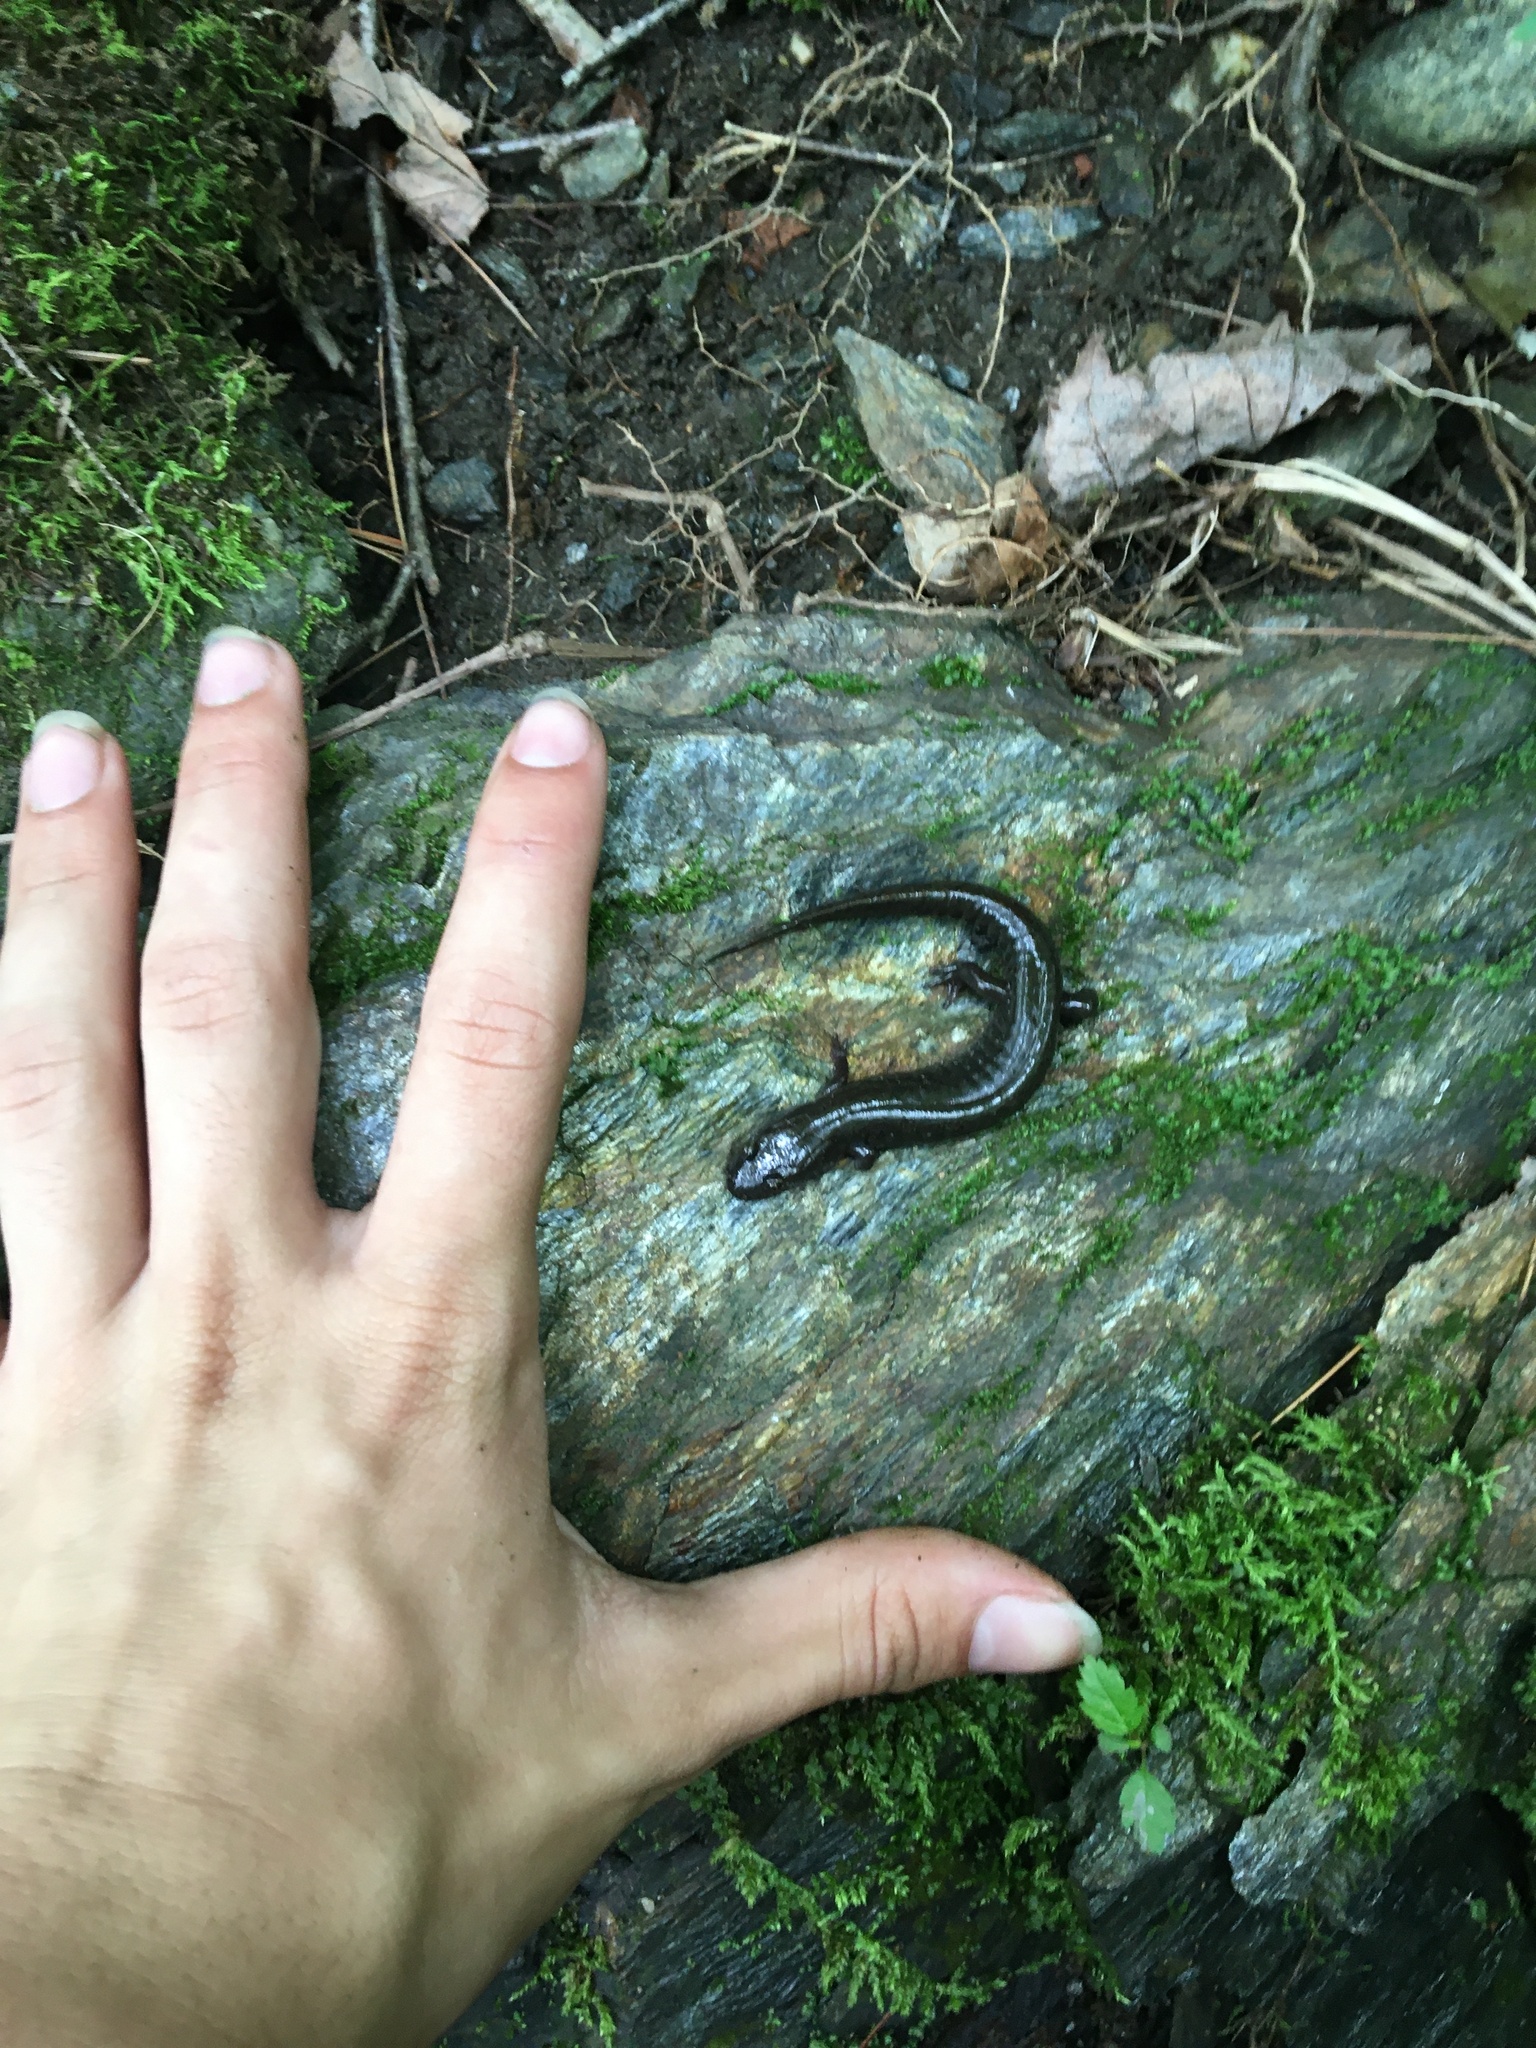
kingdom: Animalia
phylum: Chordata
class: Amphibia
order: Caudata
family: Plethodontidae
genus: Desmognathus
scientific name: Desmognathus fuscus
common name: Northern dusky salamander
